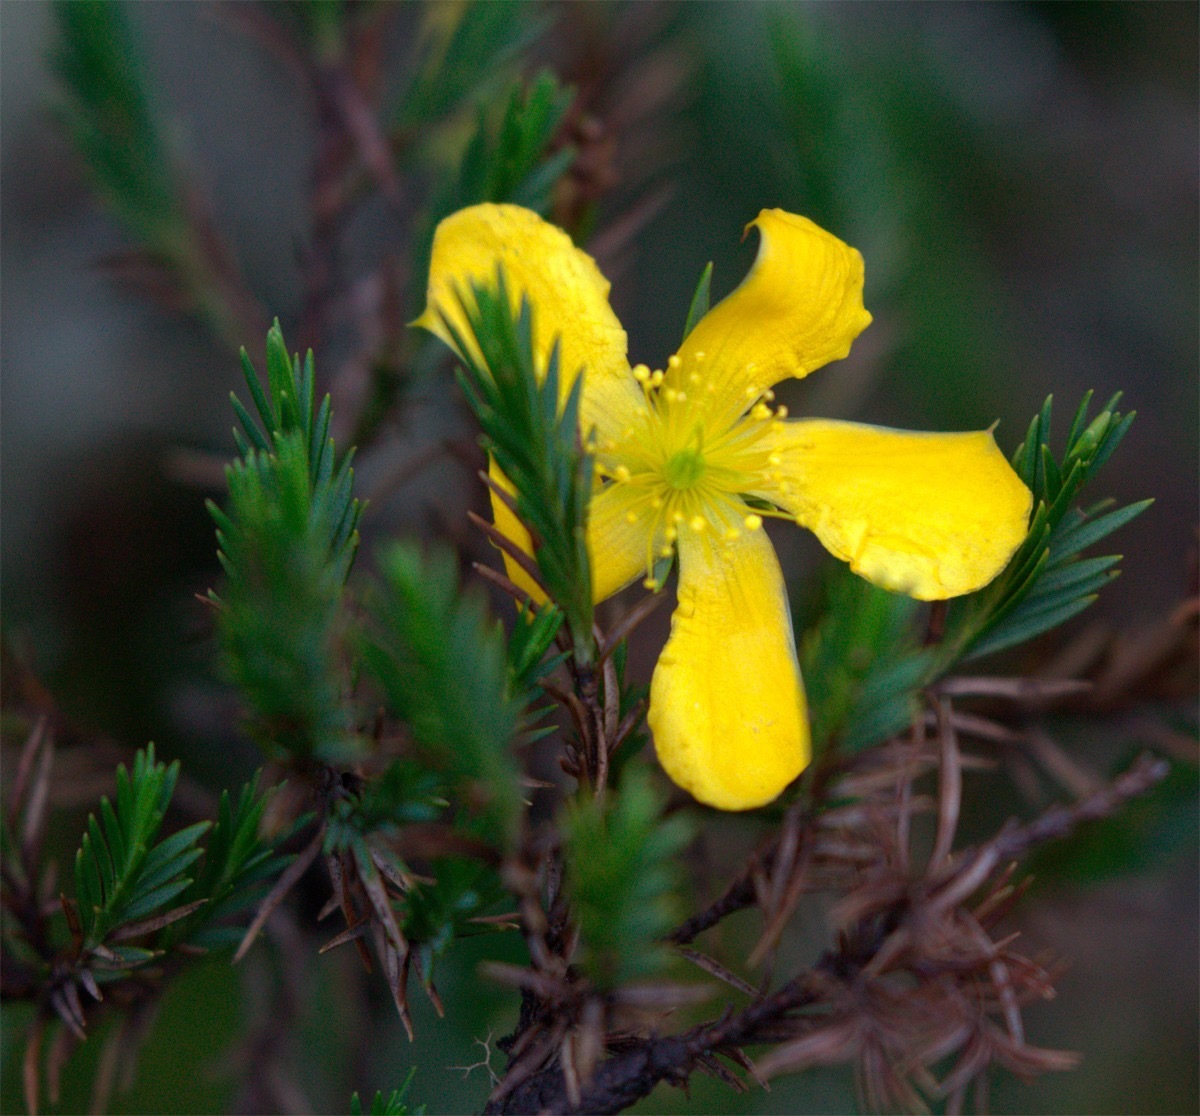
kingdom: Plantae
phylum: Tracheophyta
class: Magnoliopsida
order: Malpighiales
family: Hypericaceae
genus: Hypericum
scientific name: Hypericum aciculare
